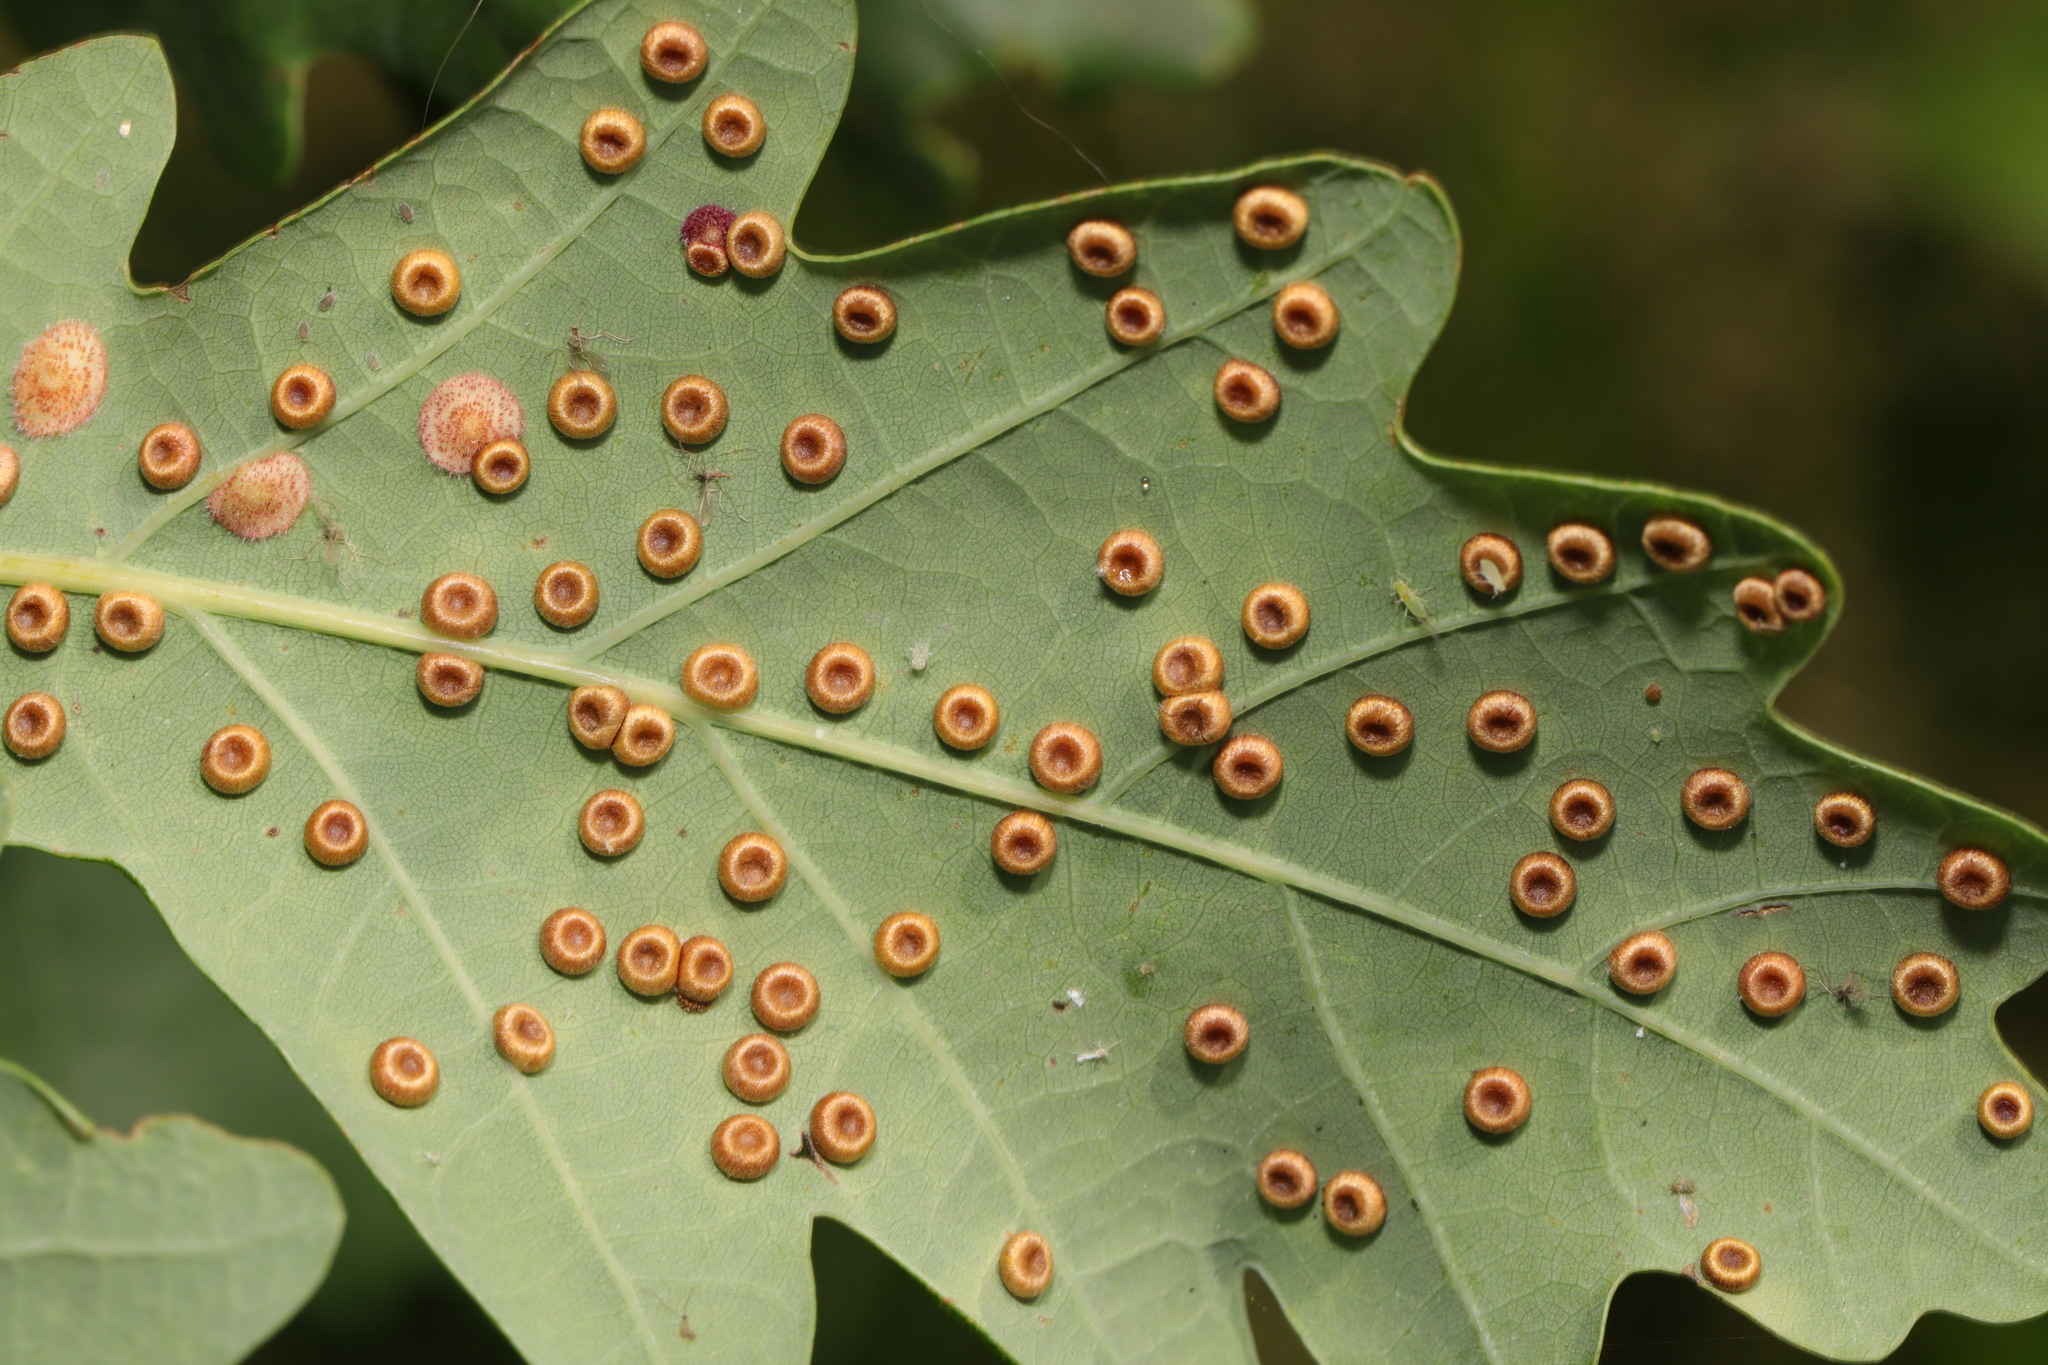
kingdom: Animalia
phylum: Arthropoda
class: Insecta
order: Hymenoptera
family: Cynipidae
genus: Neuroterus
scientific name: Neuroterus numismalis
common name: Silk-button spangle gall
